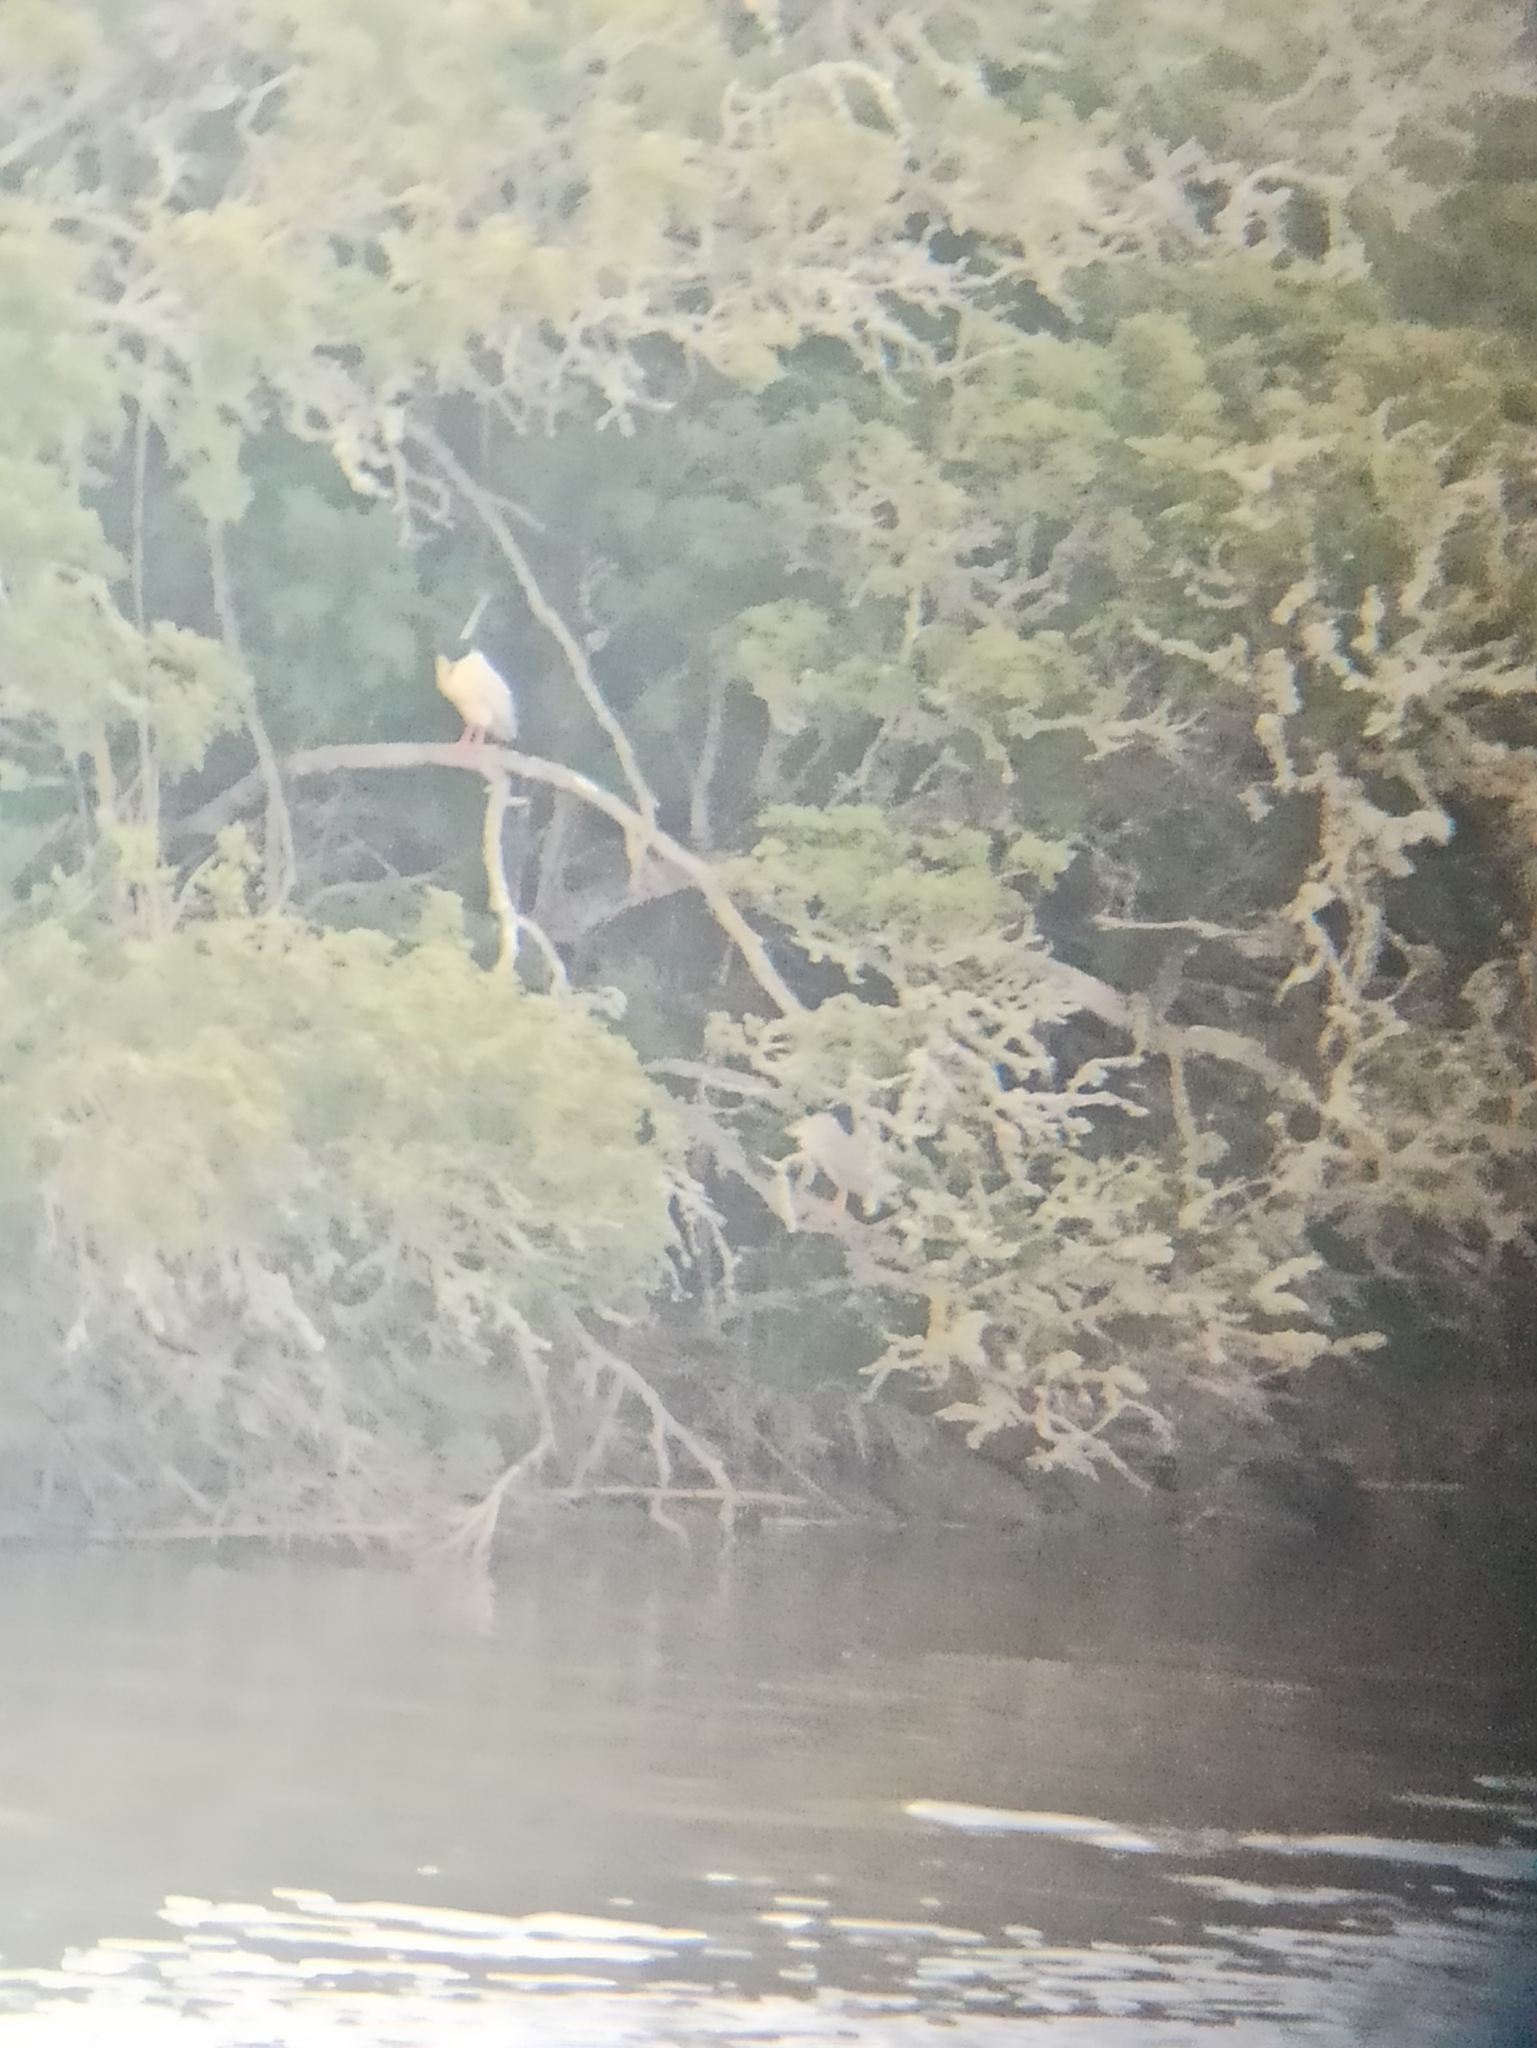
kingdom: Animalia
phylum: Chordata
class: Aves
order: Pelecaniformes
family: Ardeidae
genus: Nycticorax
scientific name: Nycticorax nycticorax
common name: Black-crowned night heron
